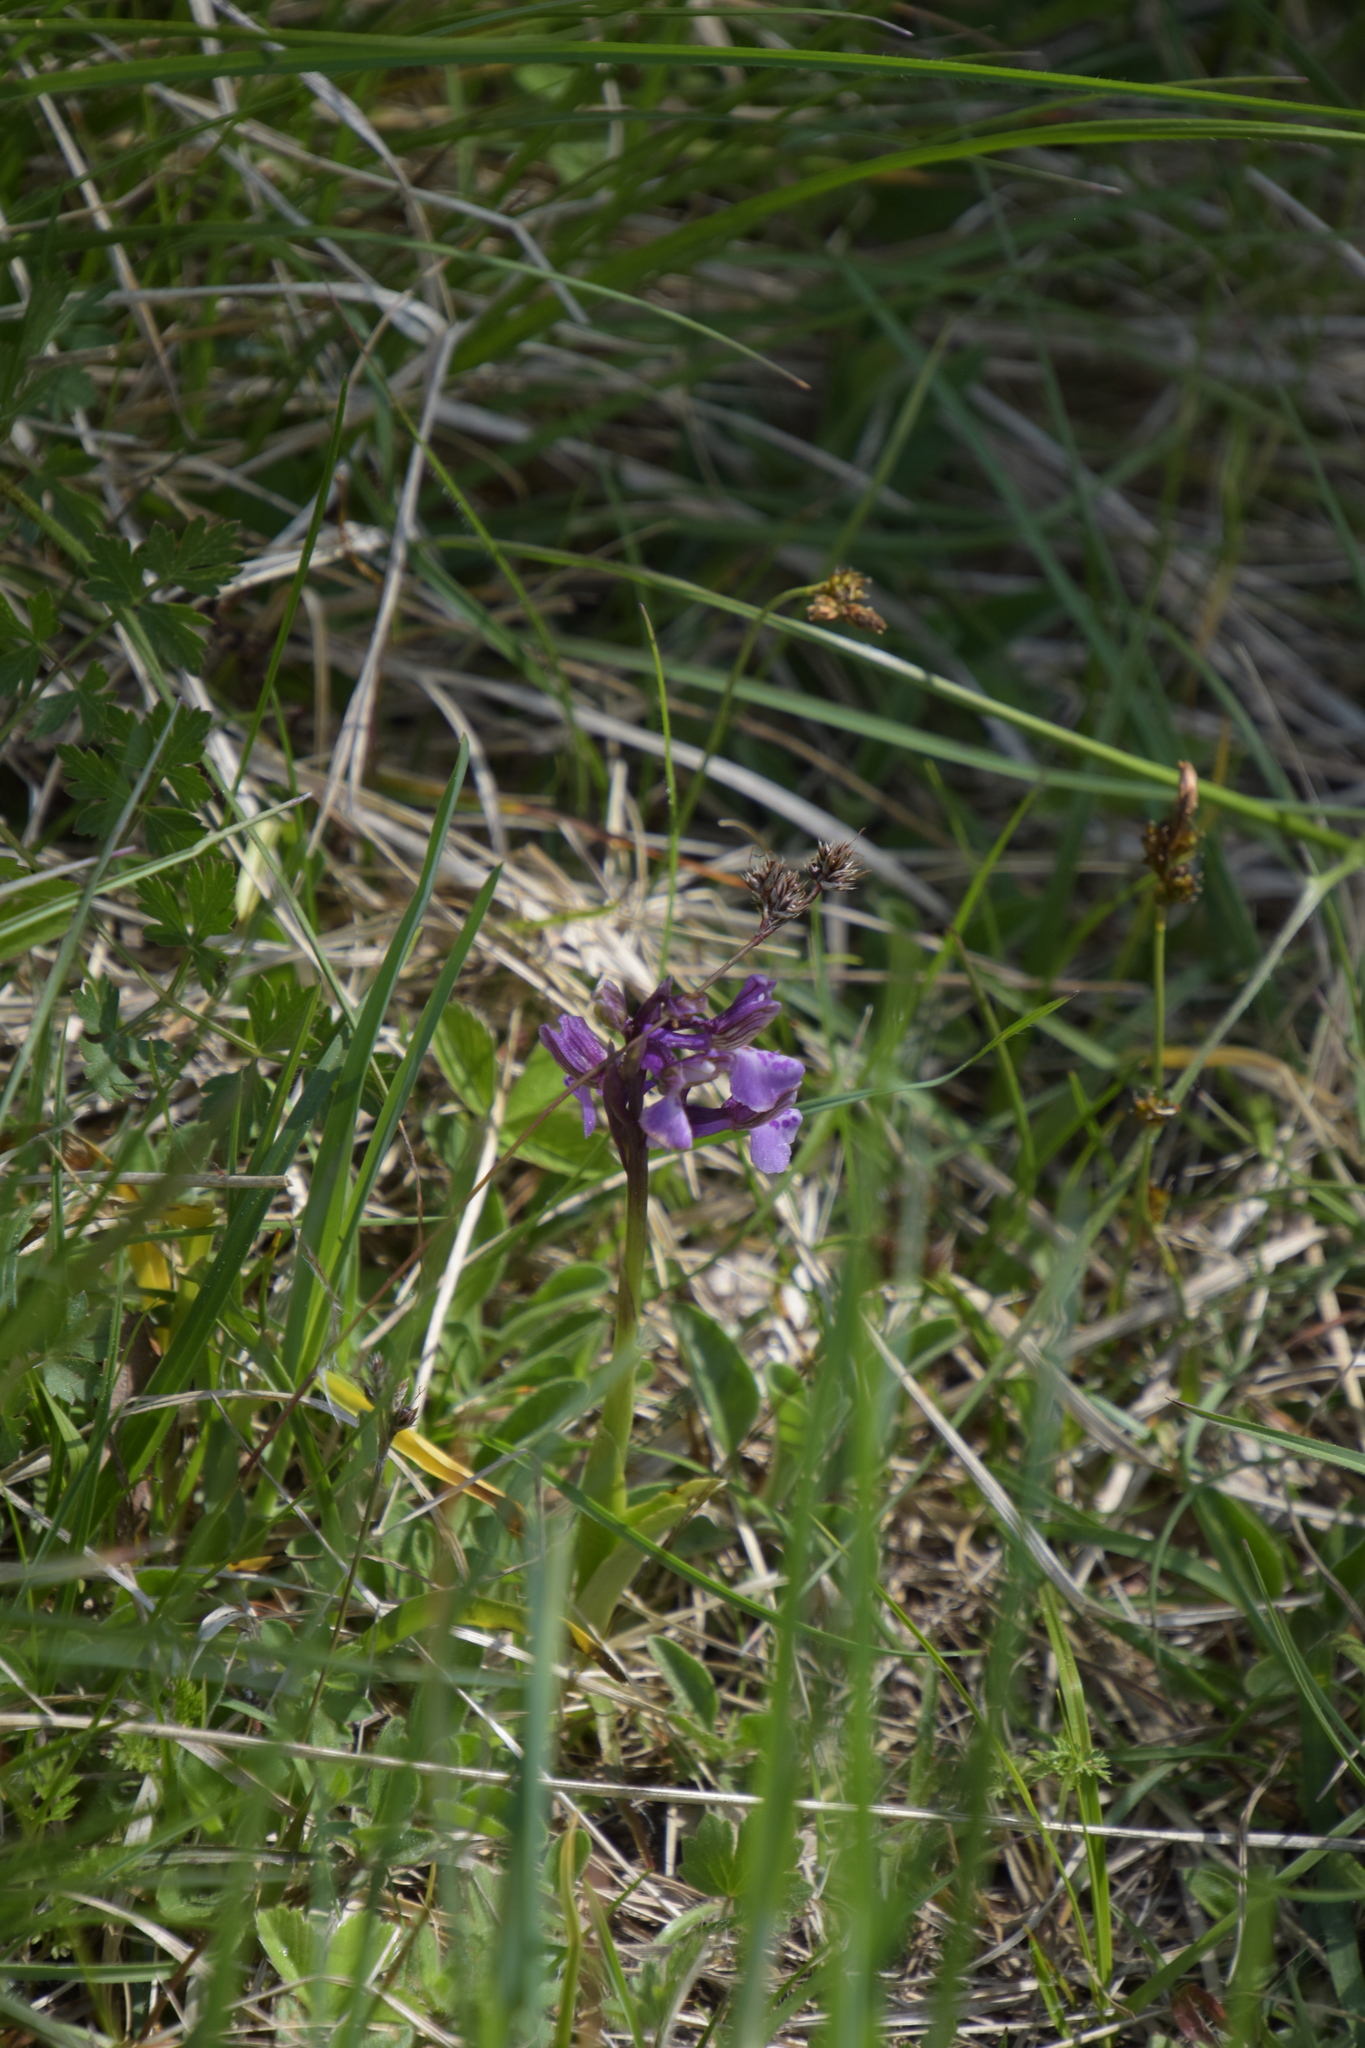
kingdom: Plantae
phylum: Tracheophyta
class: Liliopsida
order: Asparagales
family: Orchidaceae
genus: Anacamptis
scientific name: Anacamptis morio
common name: Green-winged orchid
